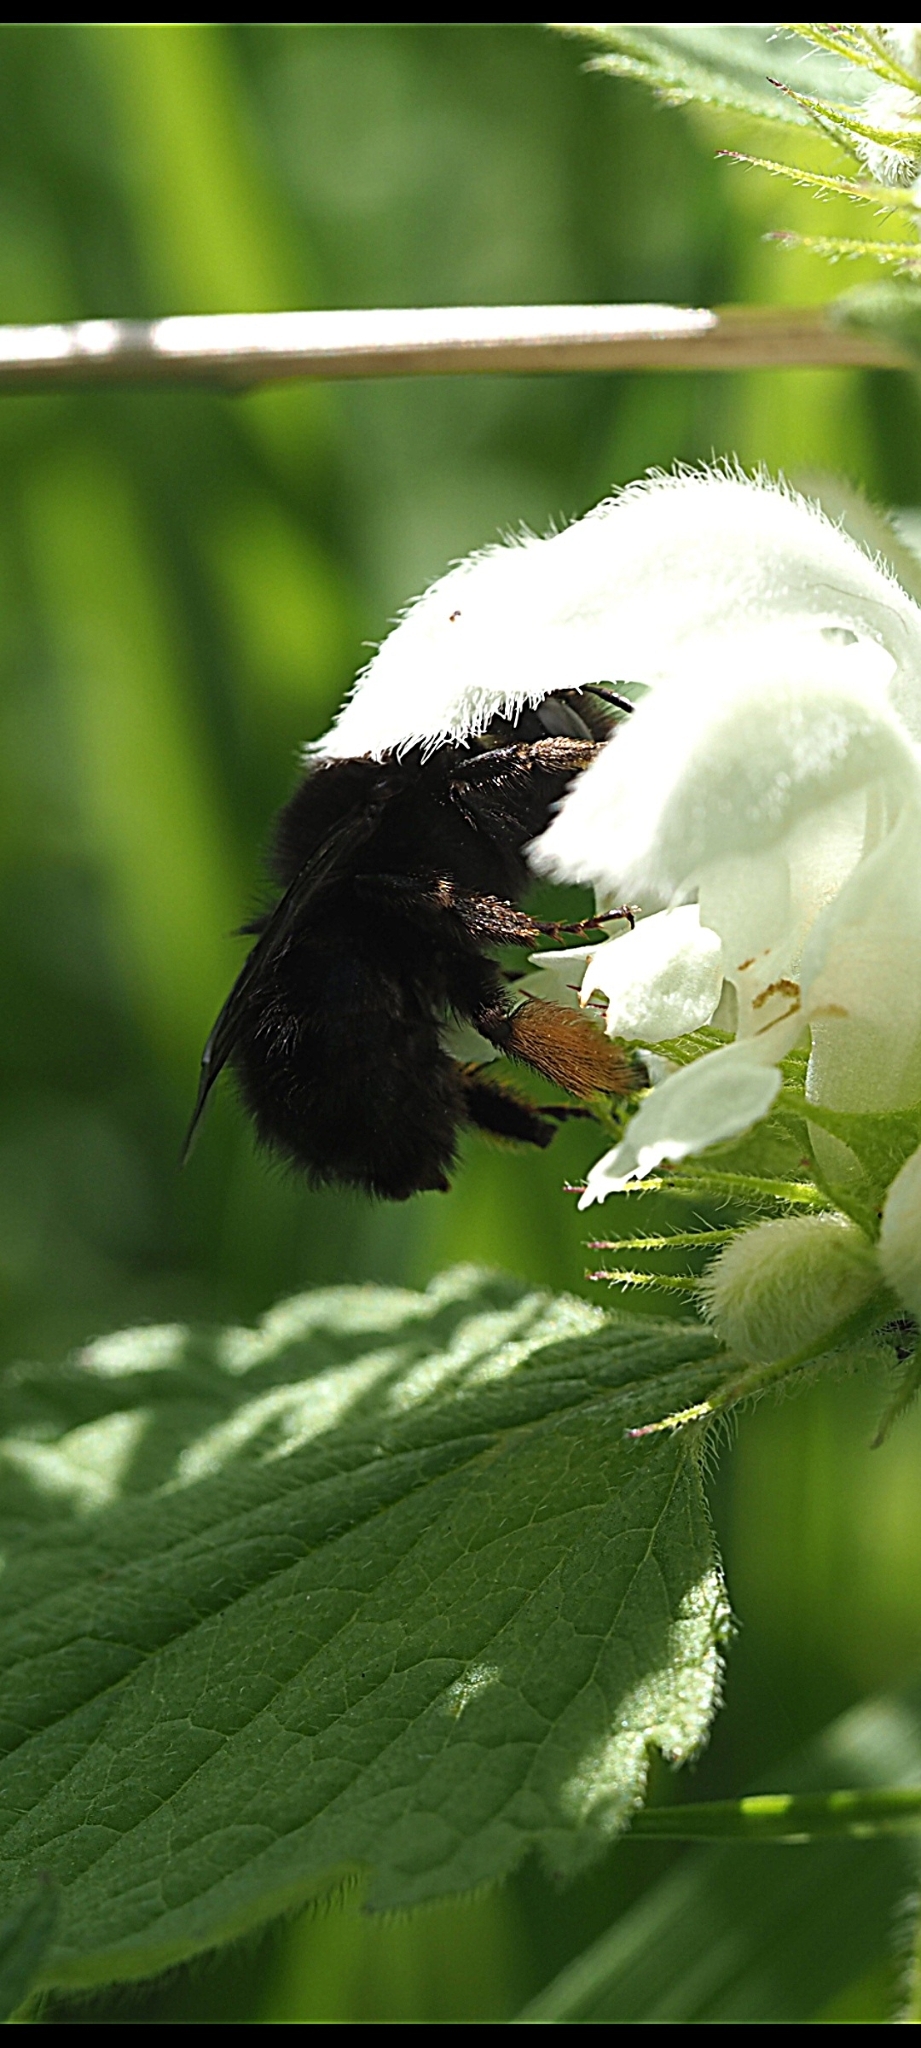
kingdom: Animalia
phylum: Arthropoda
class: Insecta
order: Hymenoptera
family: Apidae
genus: Anthophora
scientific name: Anthophora plumipes
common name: Hairy-footed flower bee
